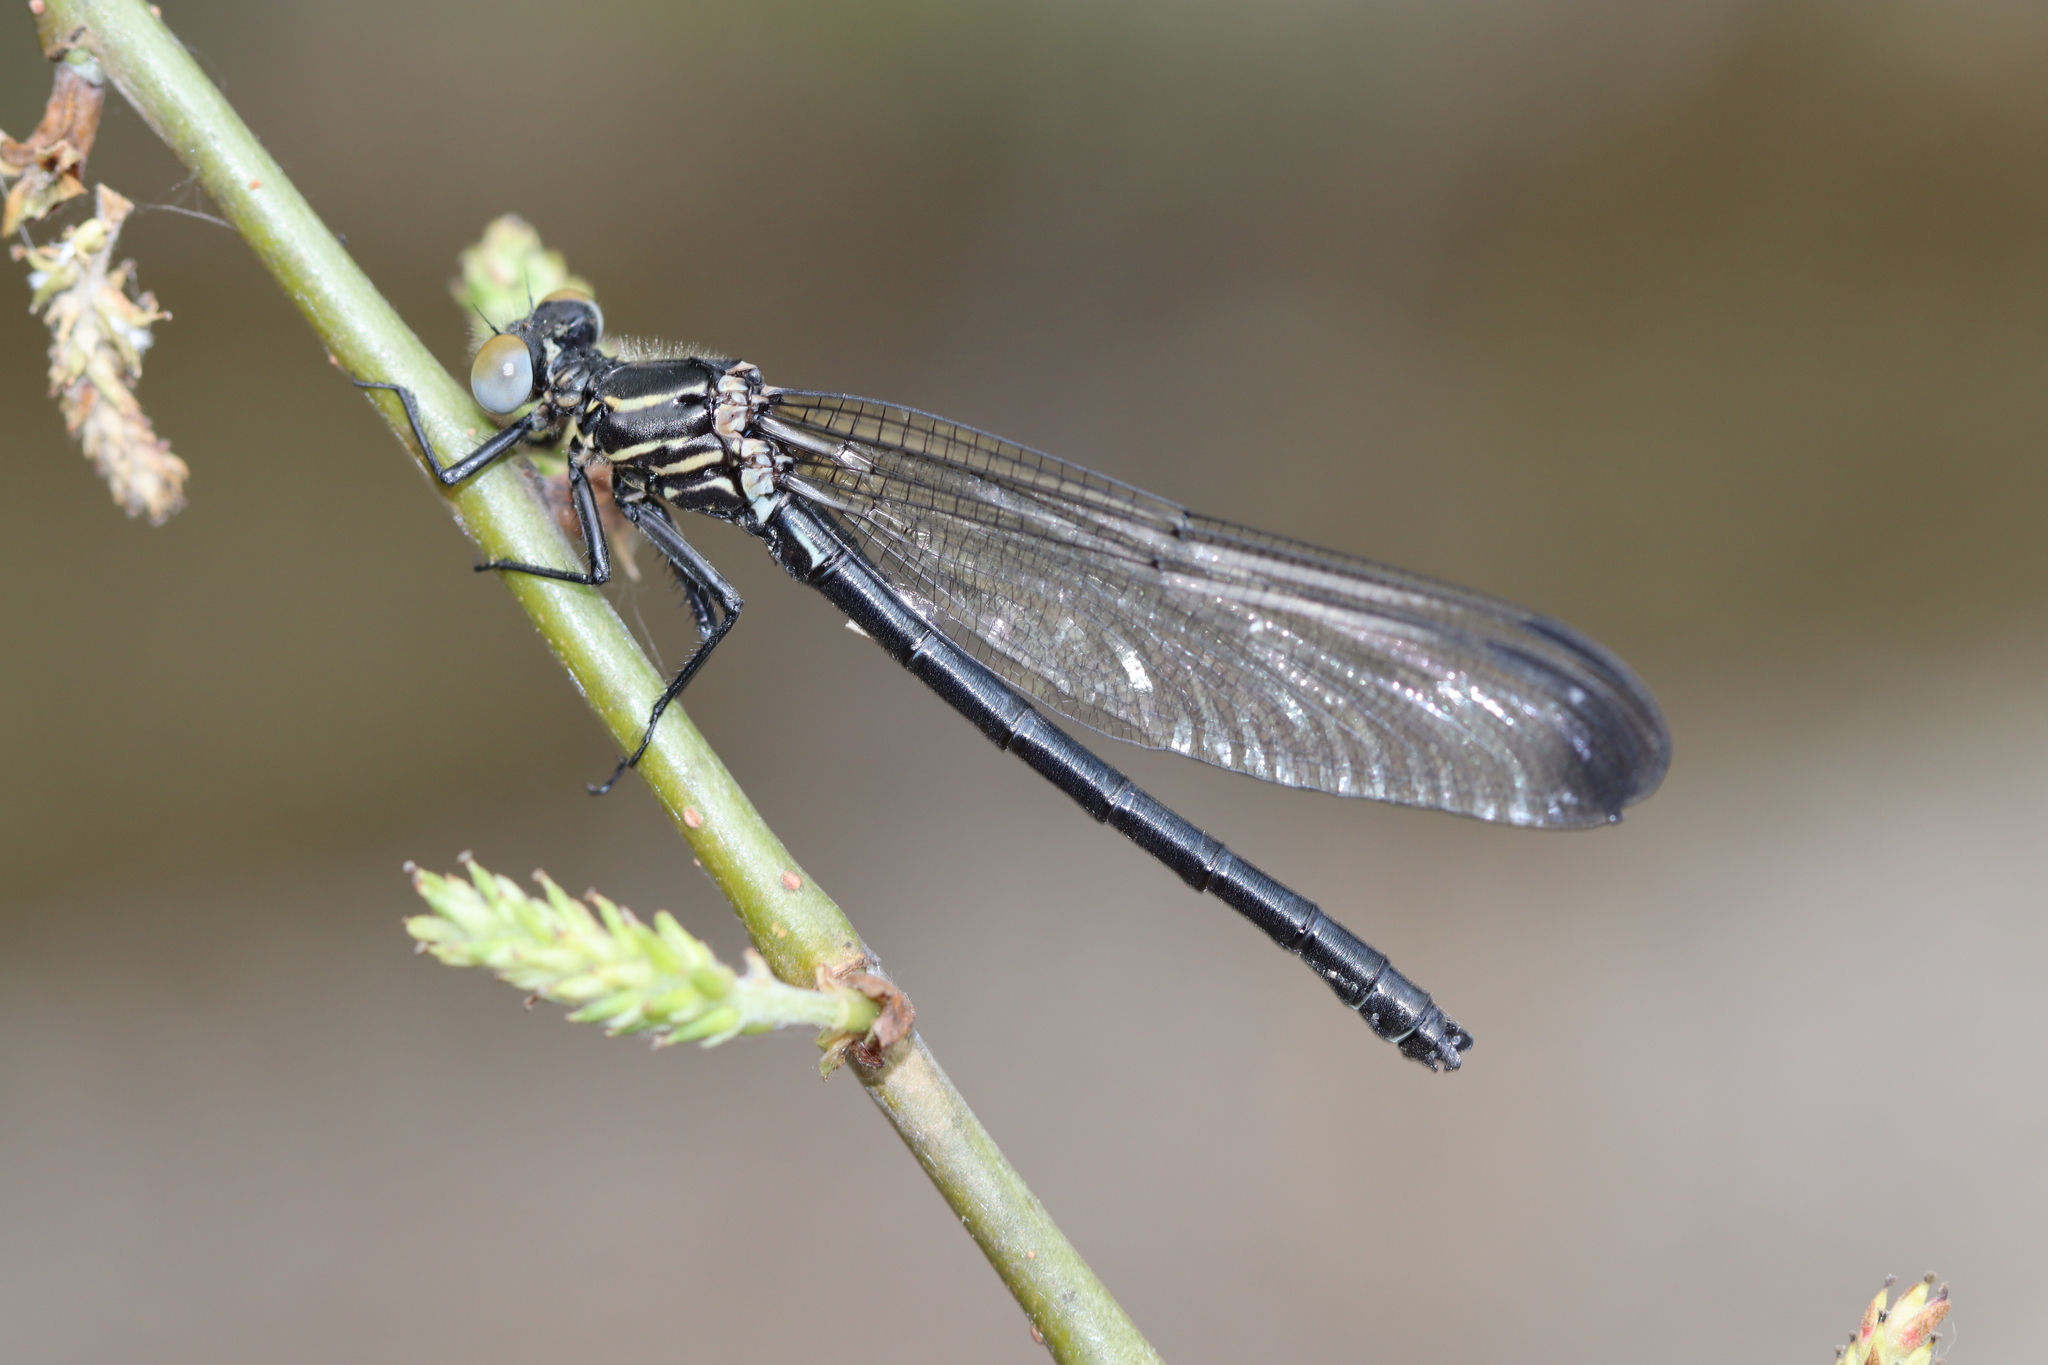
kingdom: Animalia
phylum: Arthropoda
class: Insecta
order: Odonata
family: Euphaeidae
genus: Epallage
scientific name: Epallage fatime
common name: Odalisque
